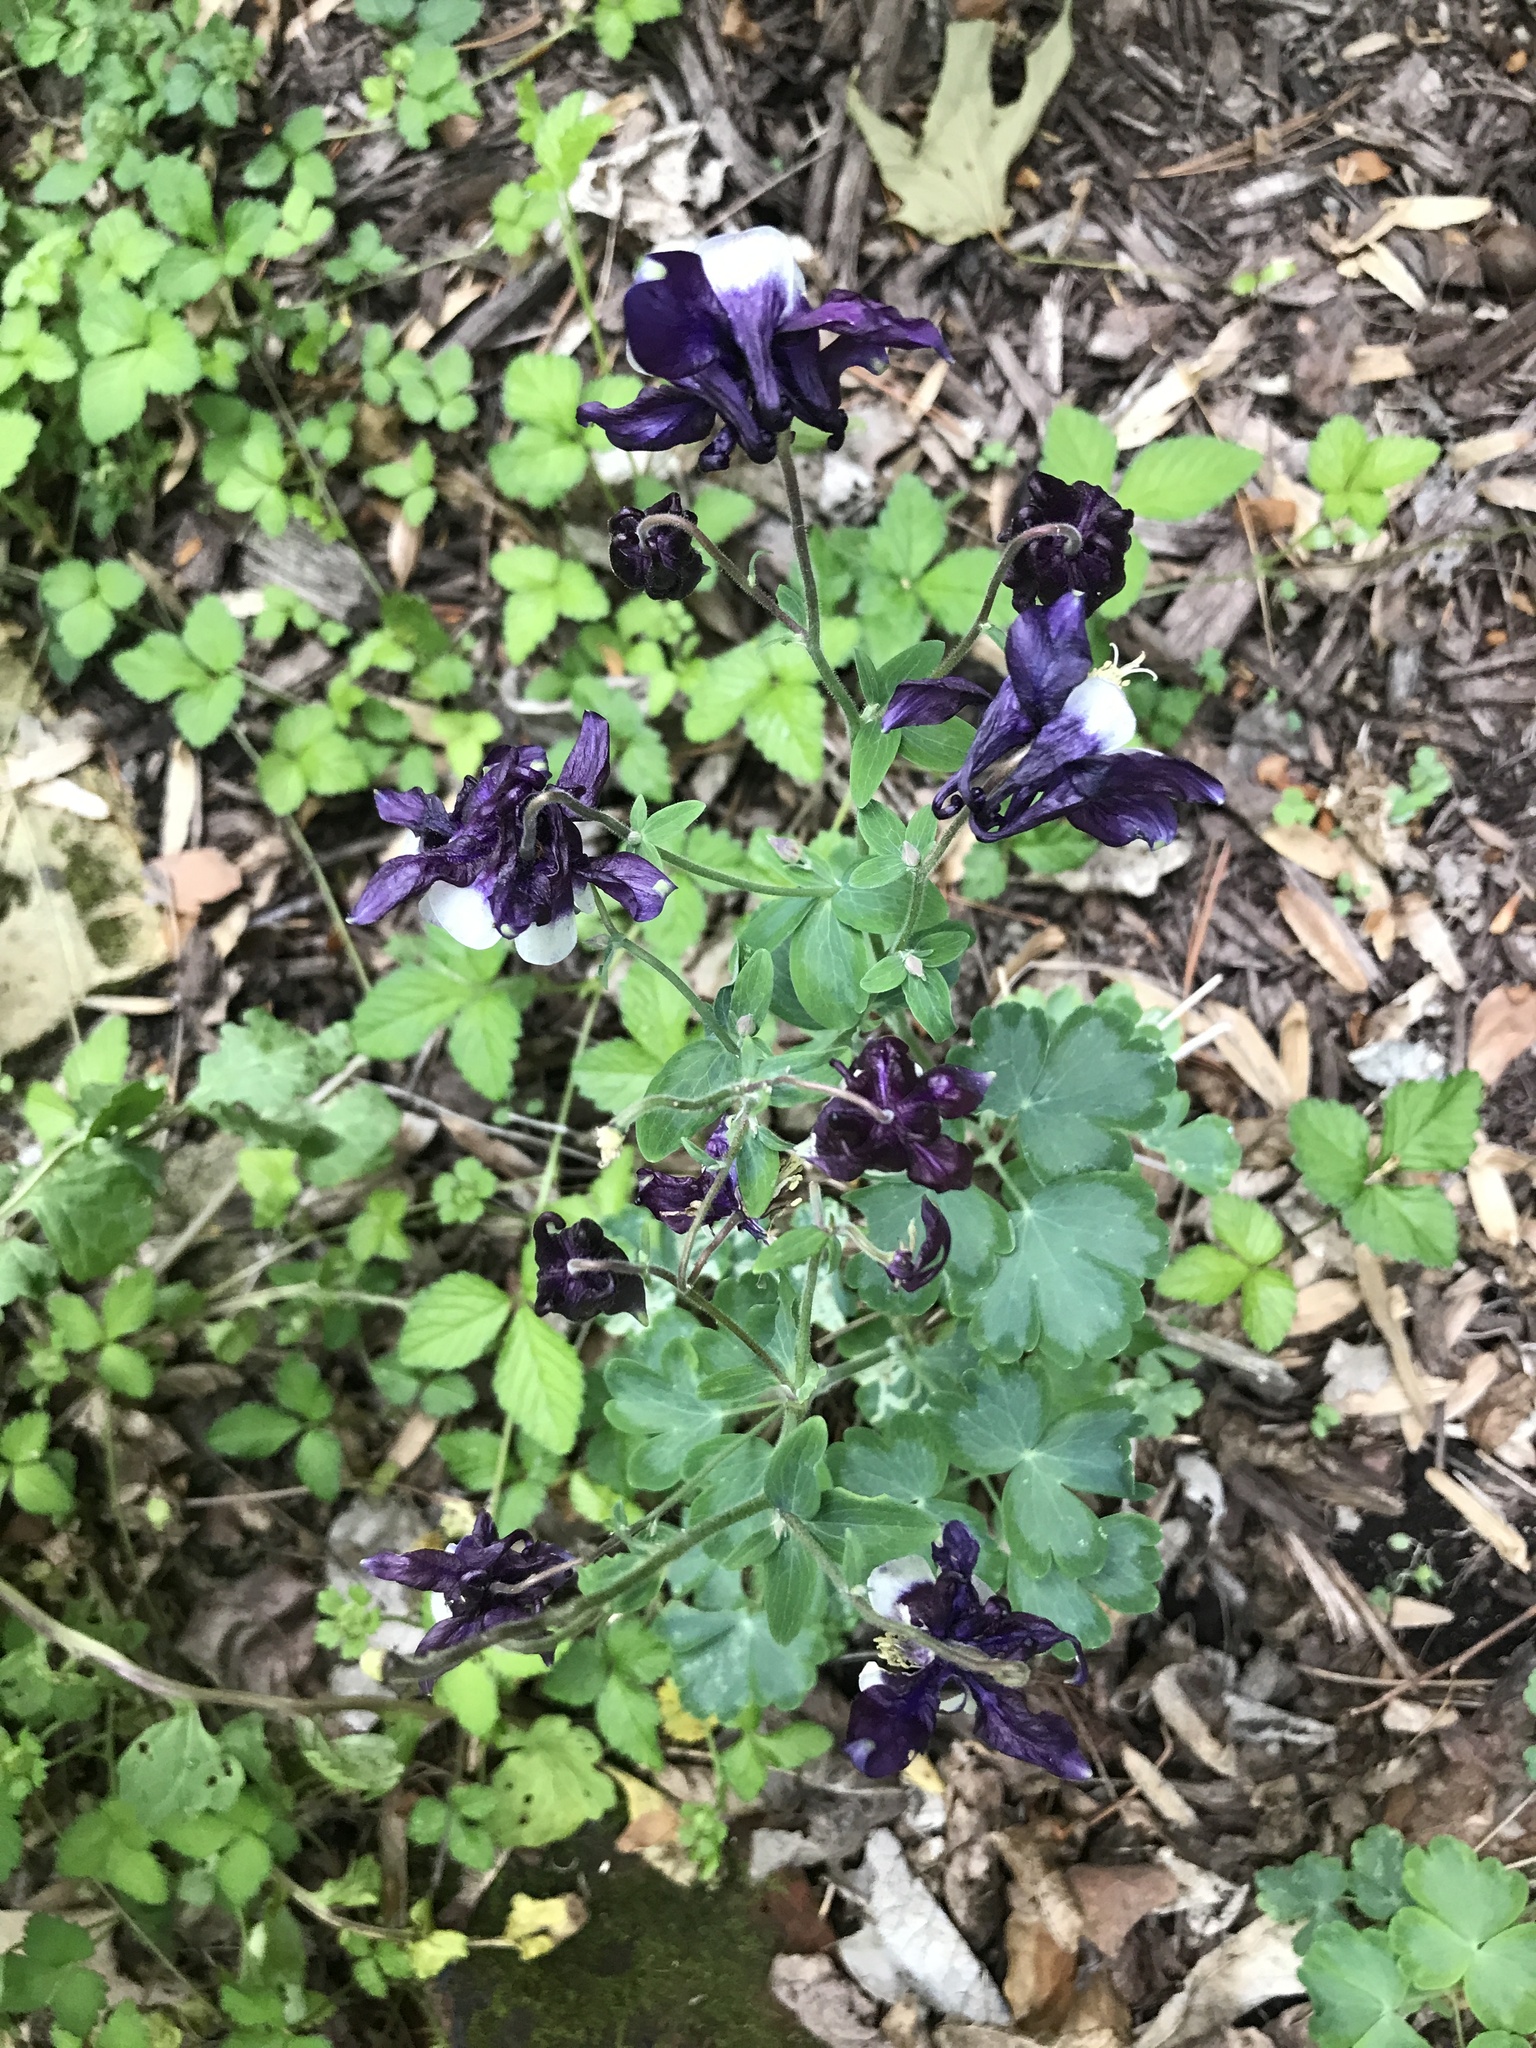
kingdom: Plantae
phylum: Tracheophyta
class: Magnoliopsida
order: Ranunculales
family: Ranunculaceae
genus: Aquilegia
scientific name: Aquilegia vulgaris
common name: Columbine
